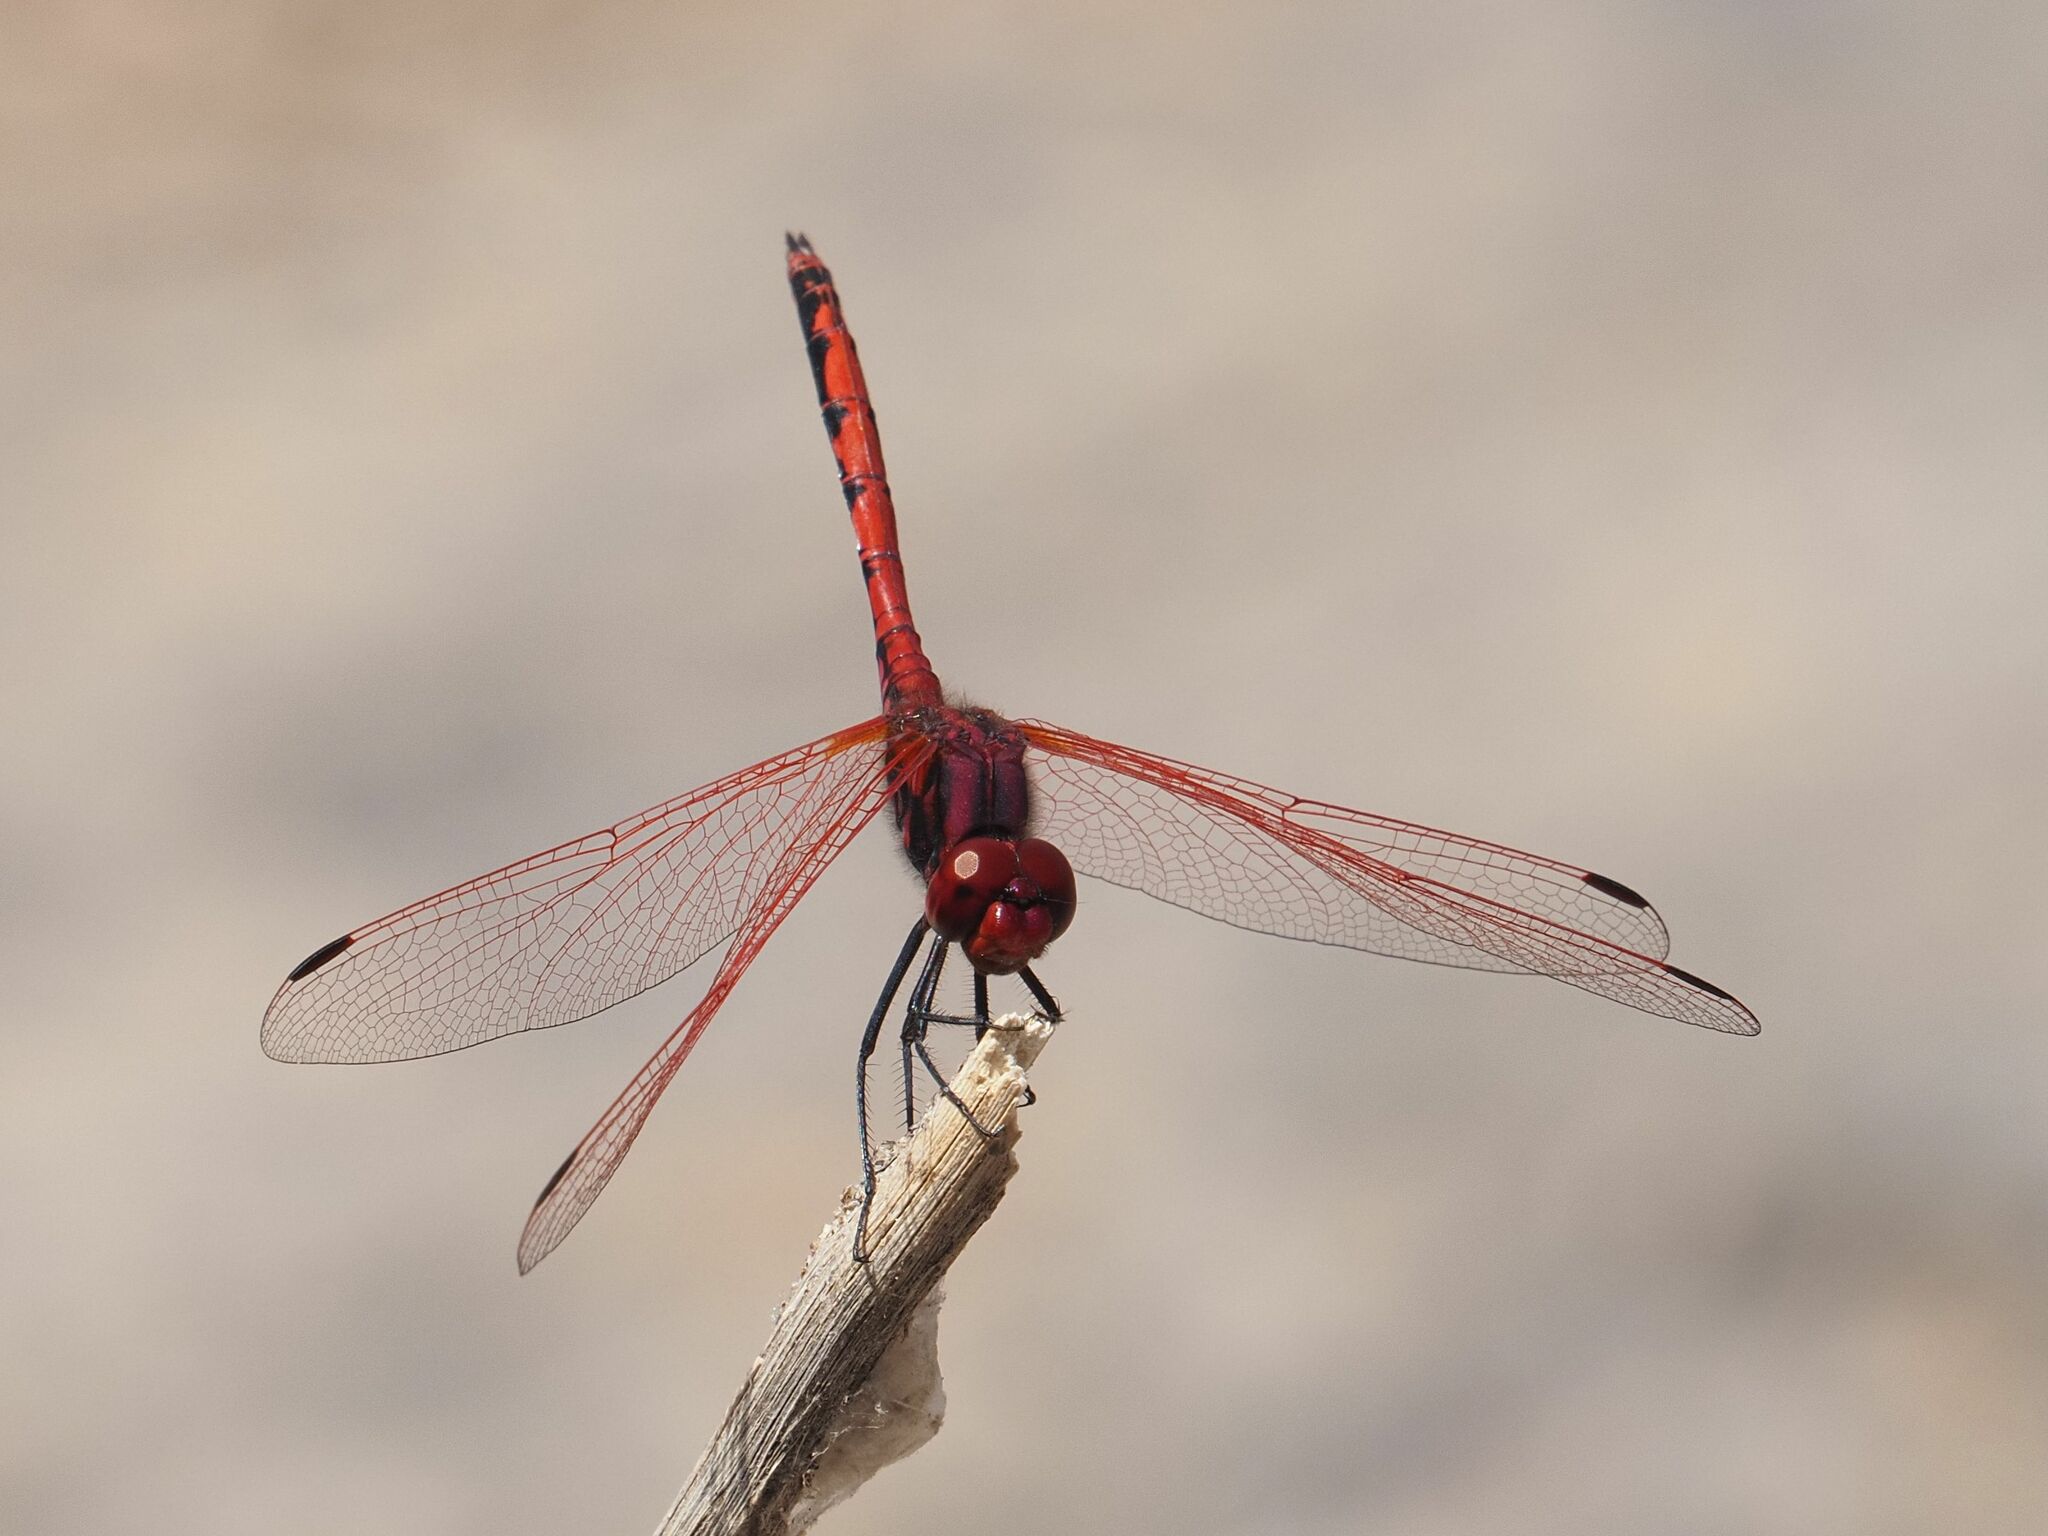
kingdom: Animalia
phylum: Arthropoda
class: Insecta
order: Odonata
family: Libellulidae
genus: Trithemis
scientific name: Trithemis arteriosa
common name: Red-veined dropwing
